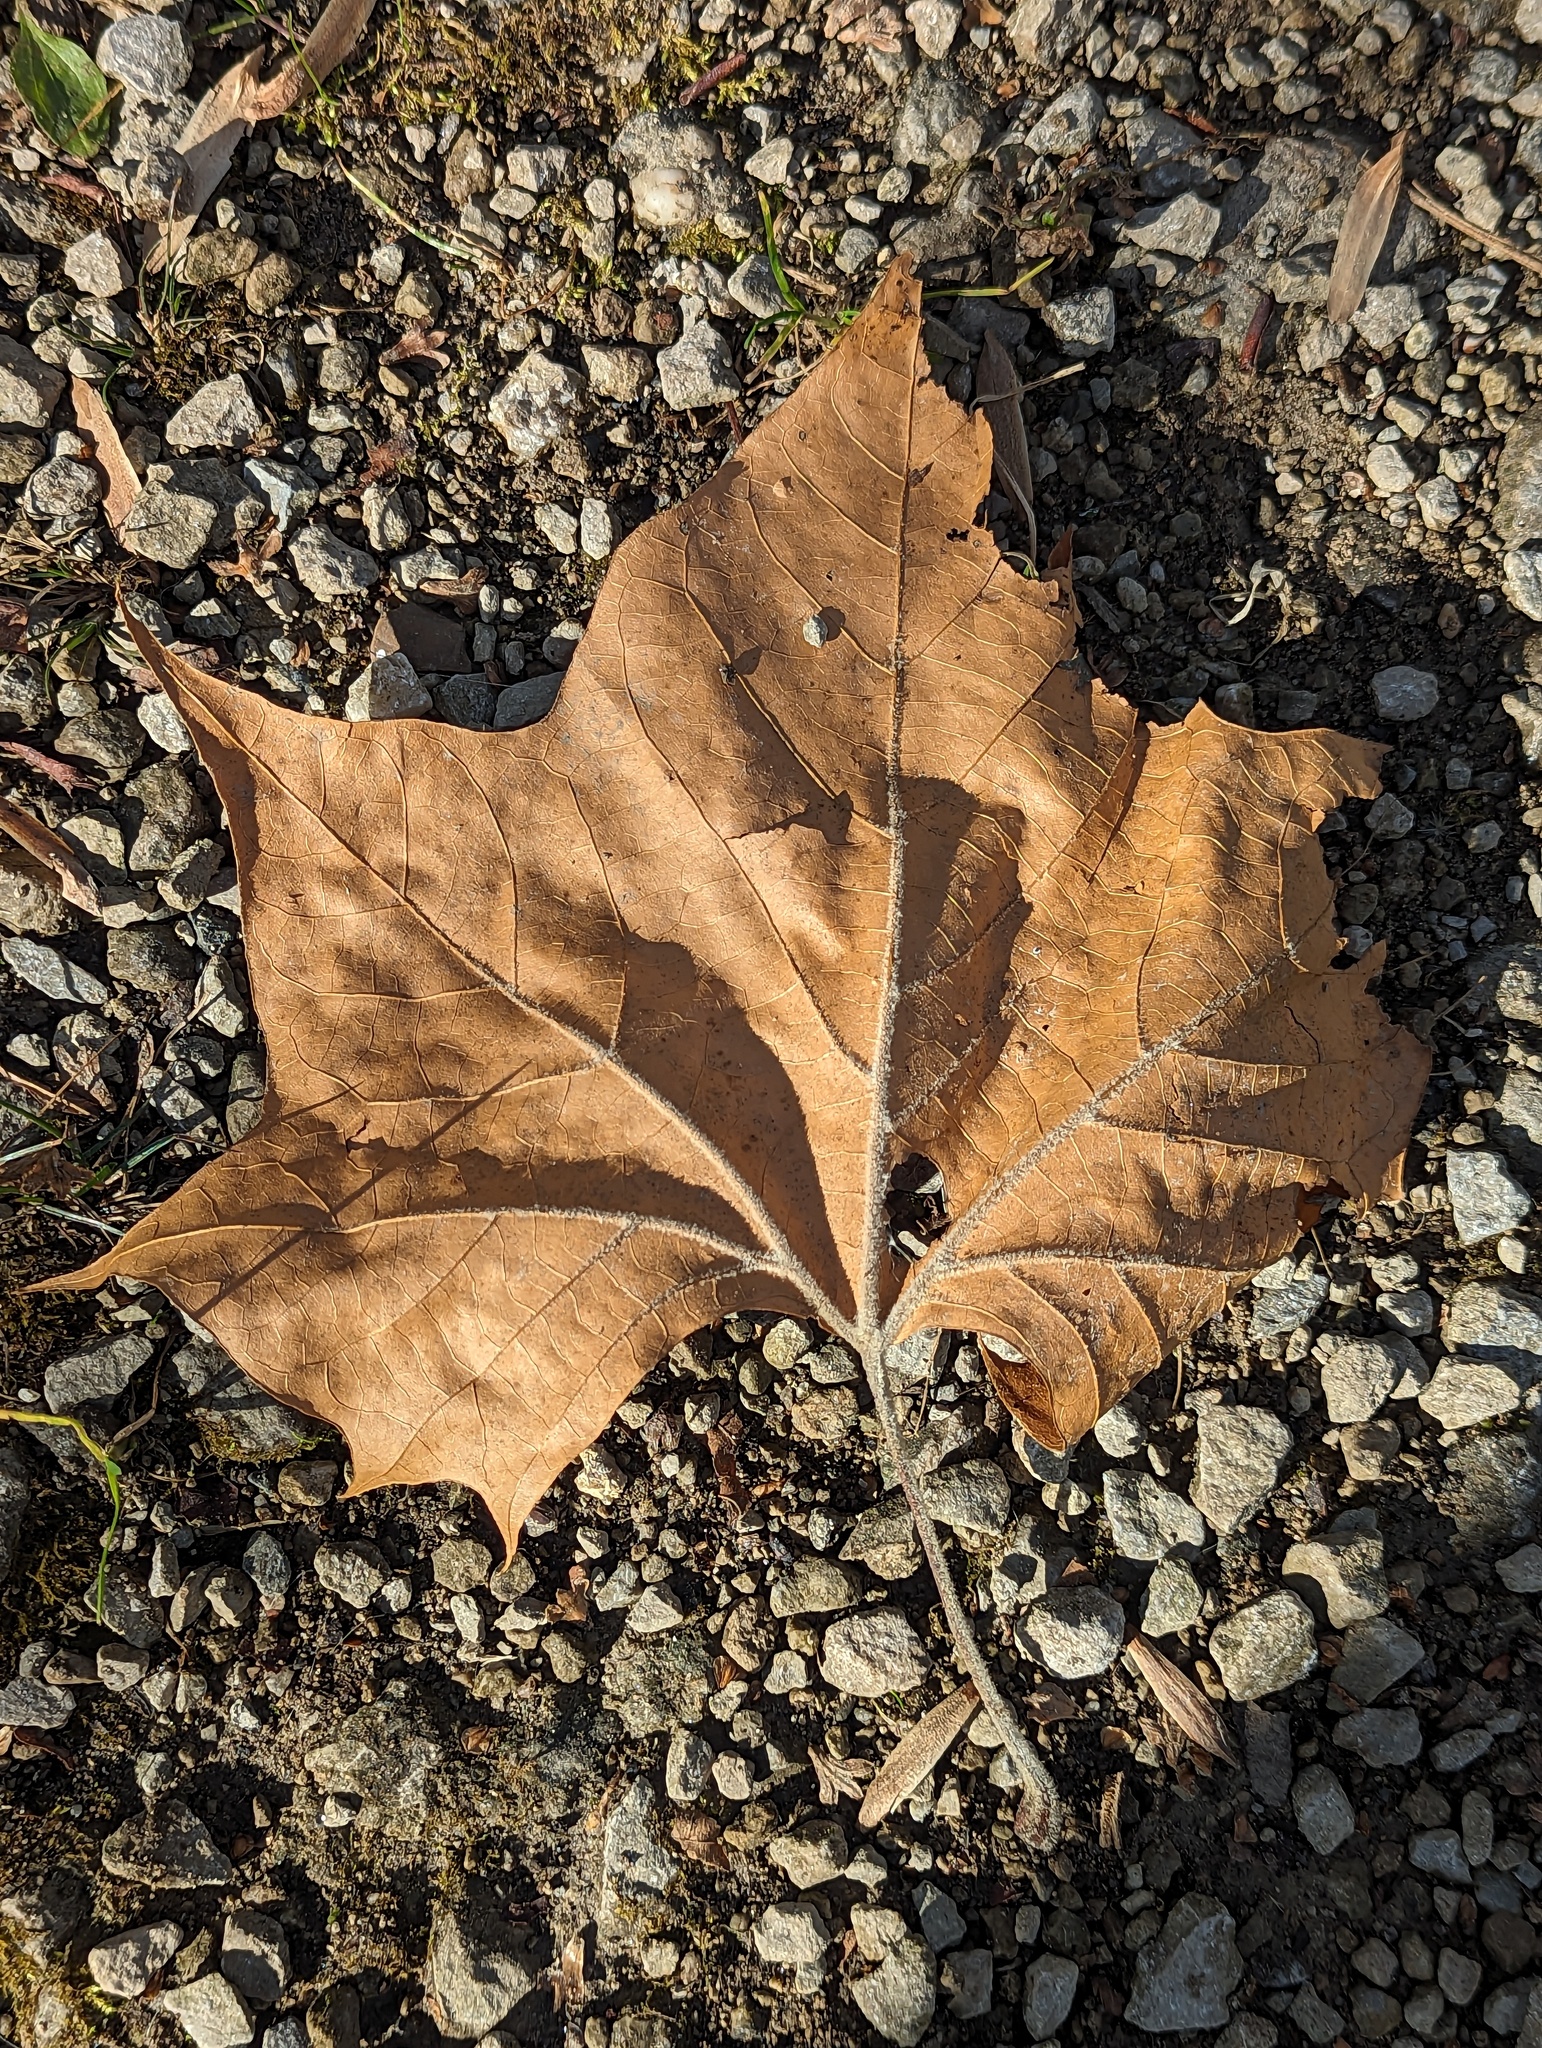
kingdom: Plantae
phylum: Tracheophyta
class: Magnoliopsida
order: Proteales
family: Platanaceae
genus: Platanus
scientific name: Platanus occidentalis
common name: American sycamore
